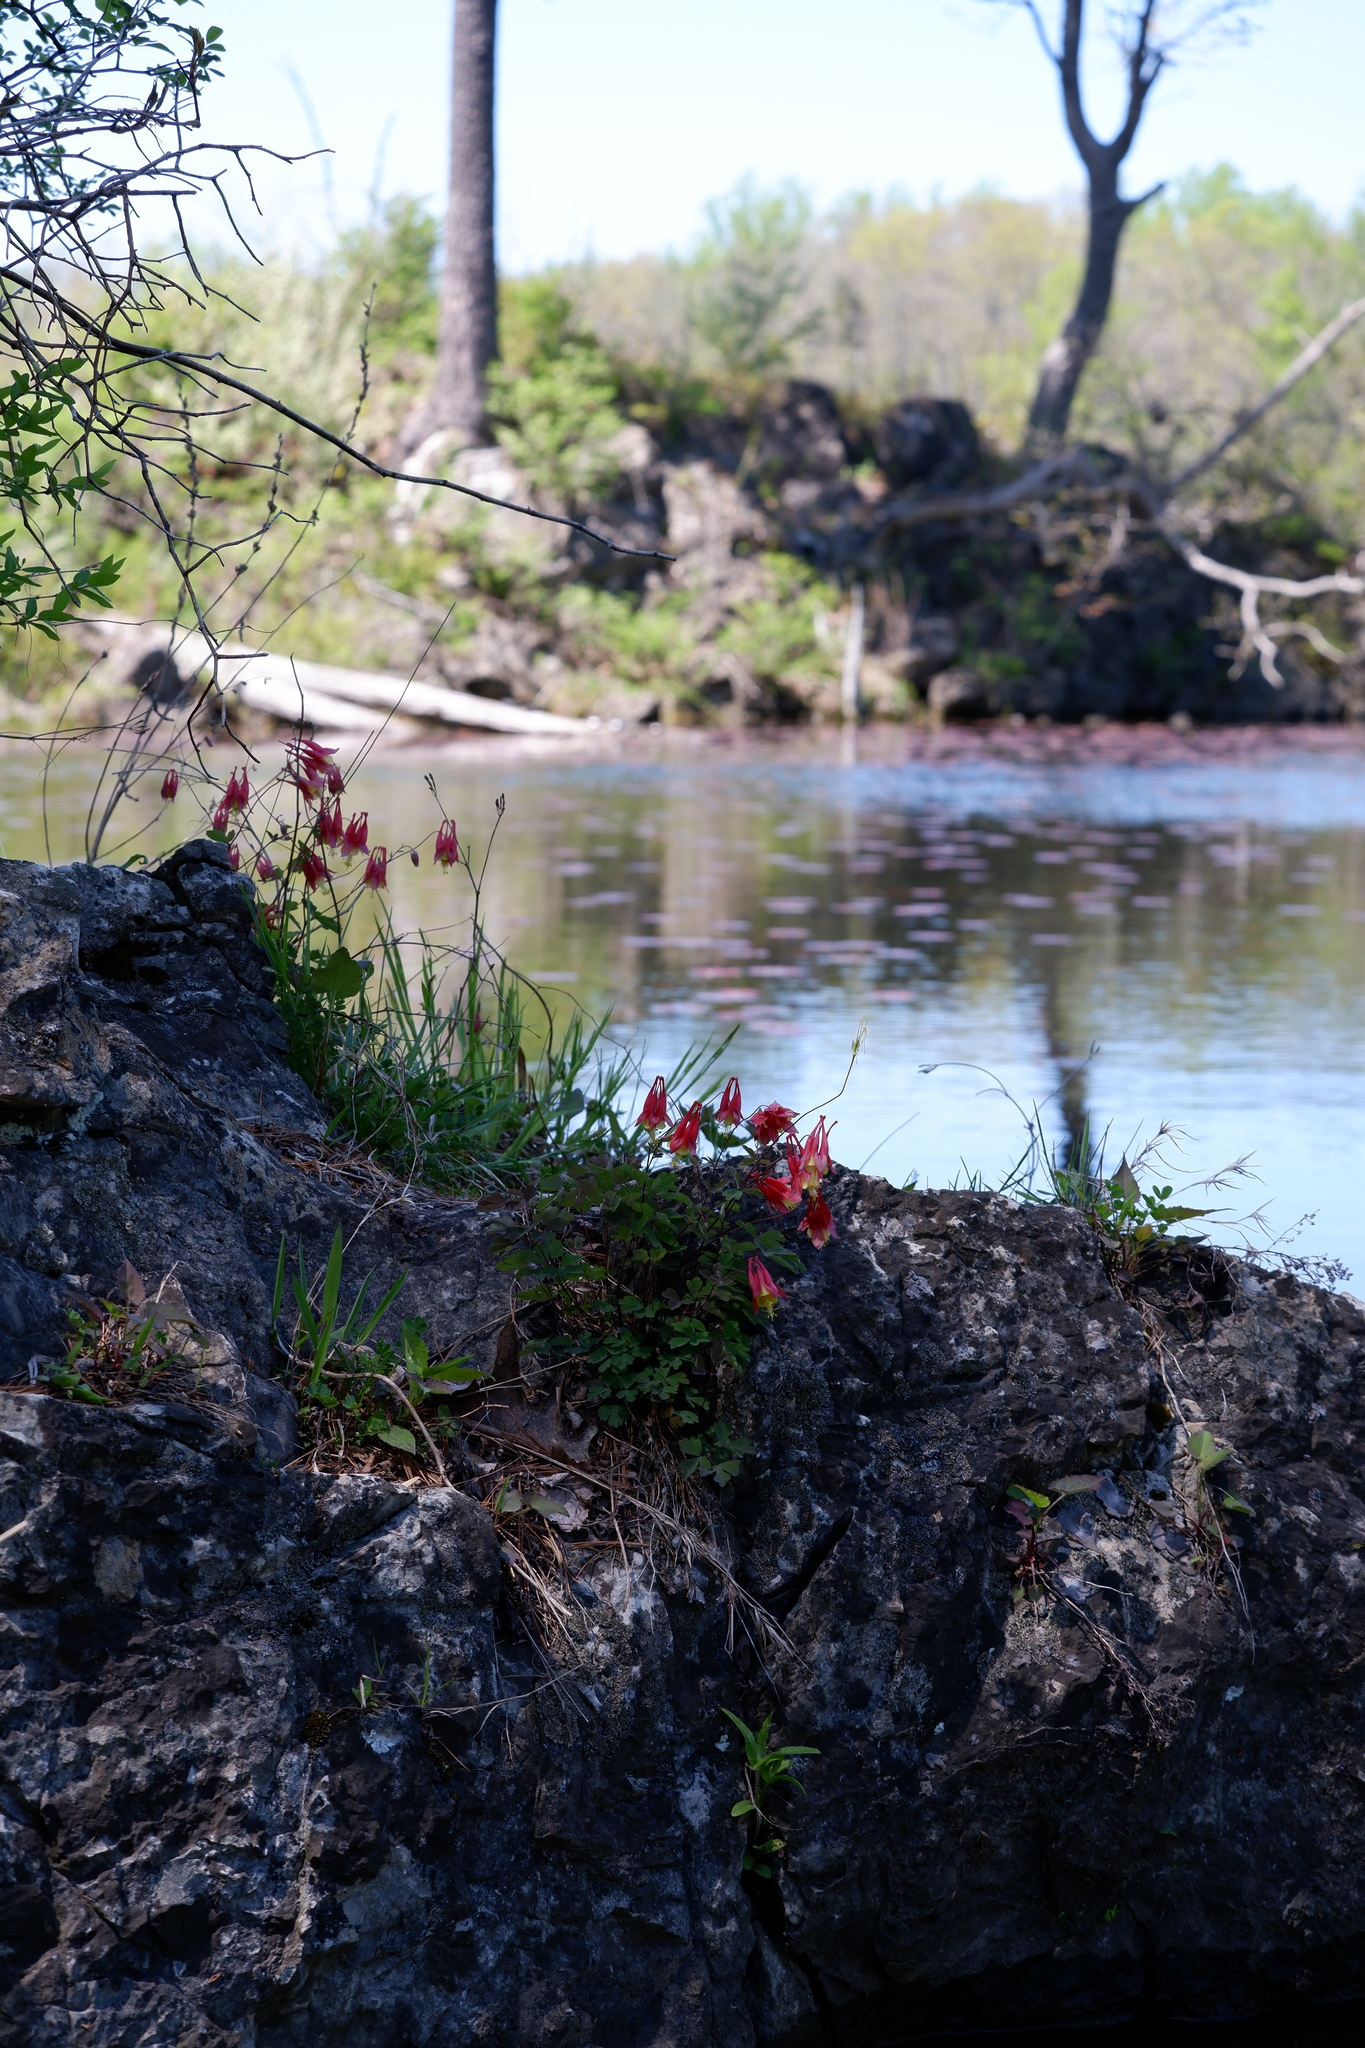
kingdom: Plantae
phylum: Tracheophyta
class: Magnoliopsida
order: Ranunculales
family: Ranunculaceae
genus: Aquilegia
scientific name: Aquilegia canadensis
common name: American columbine
